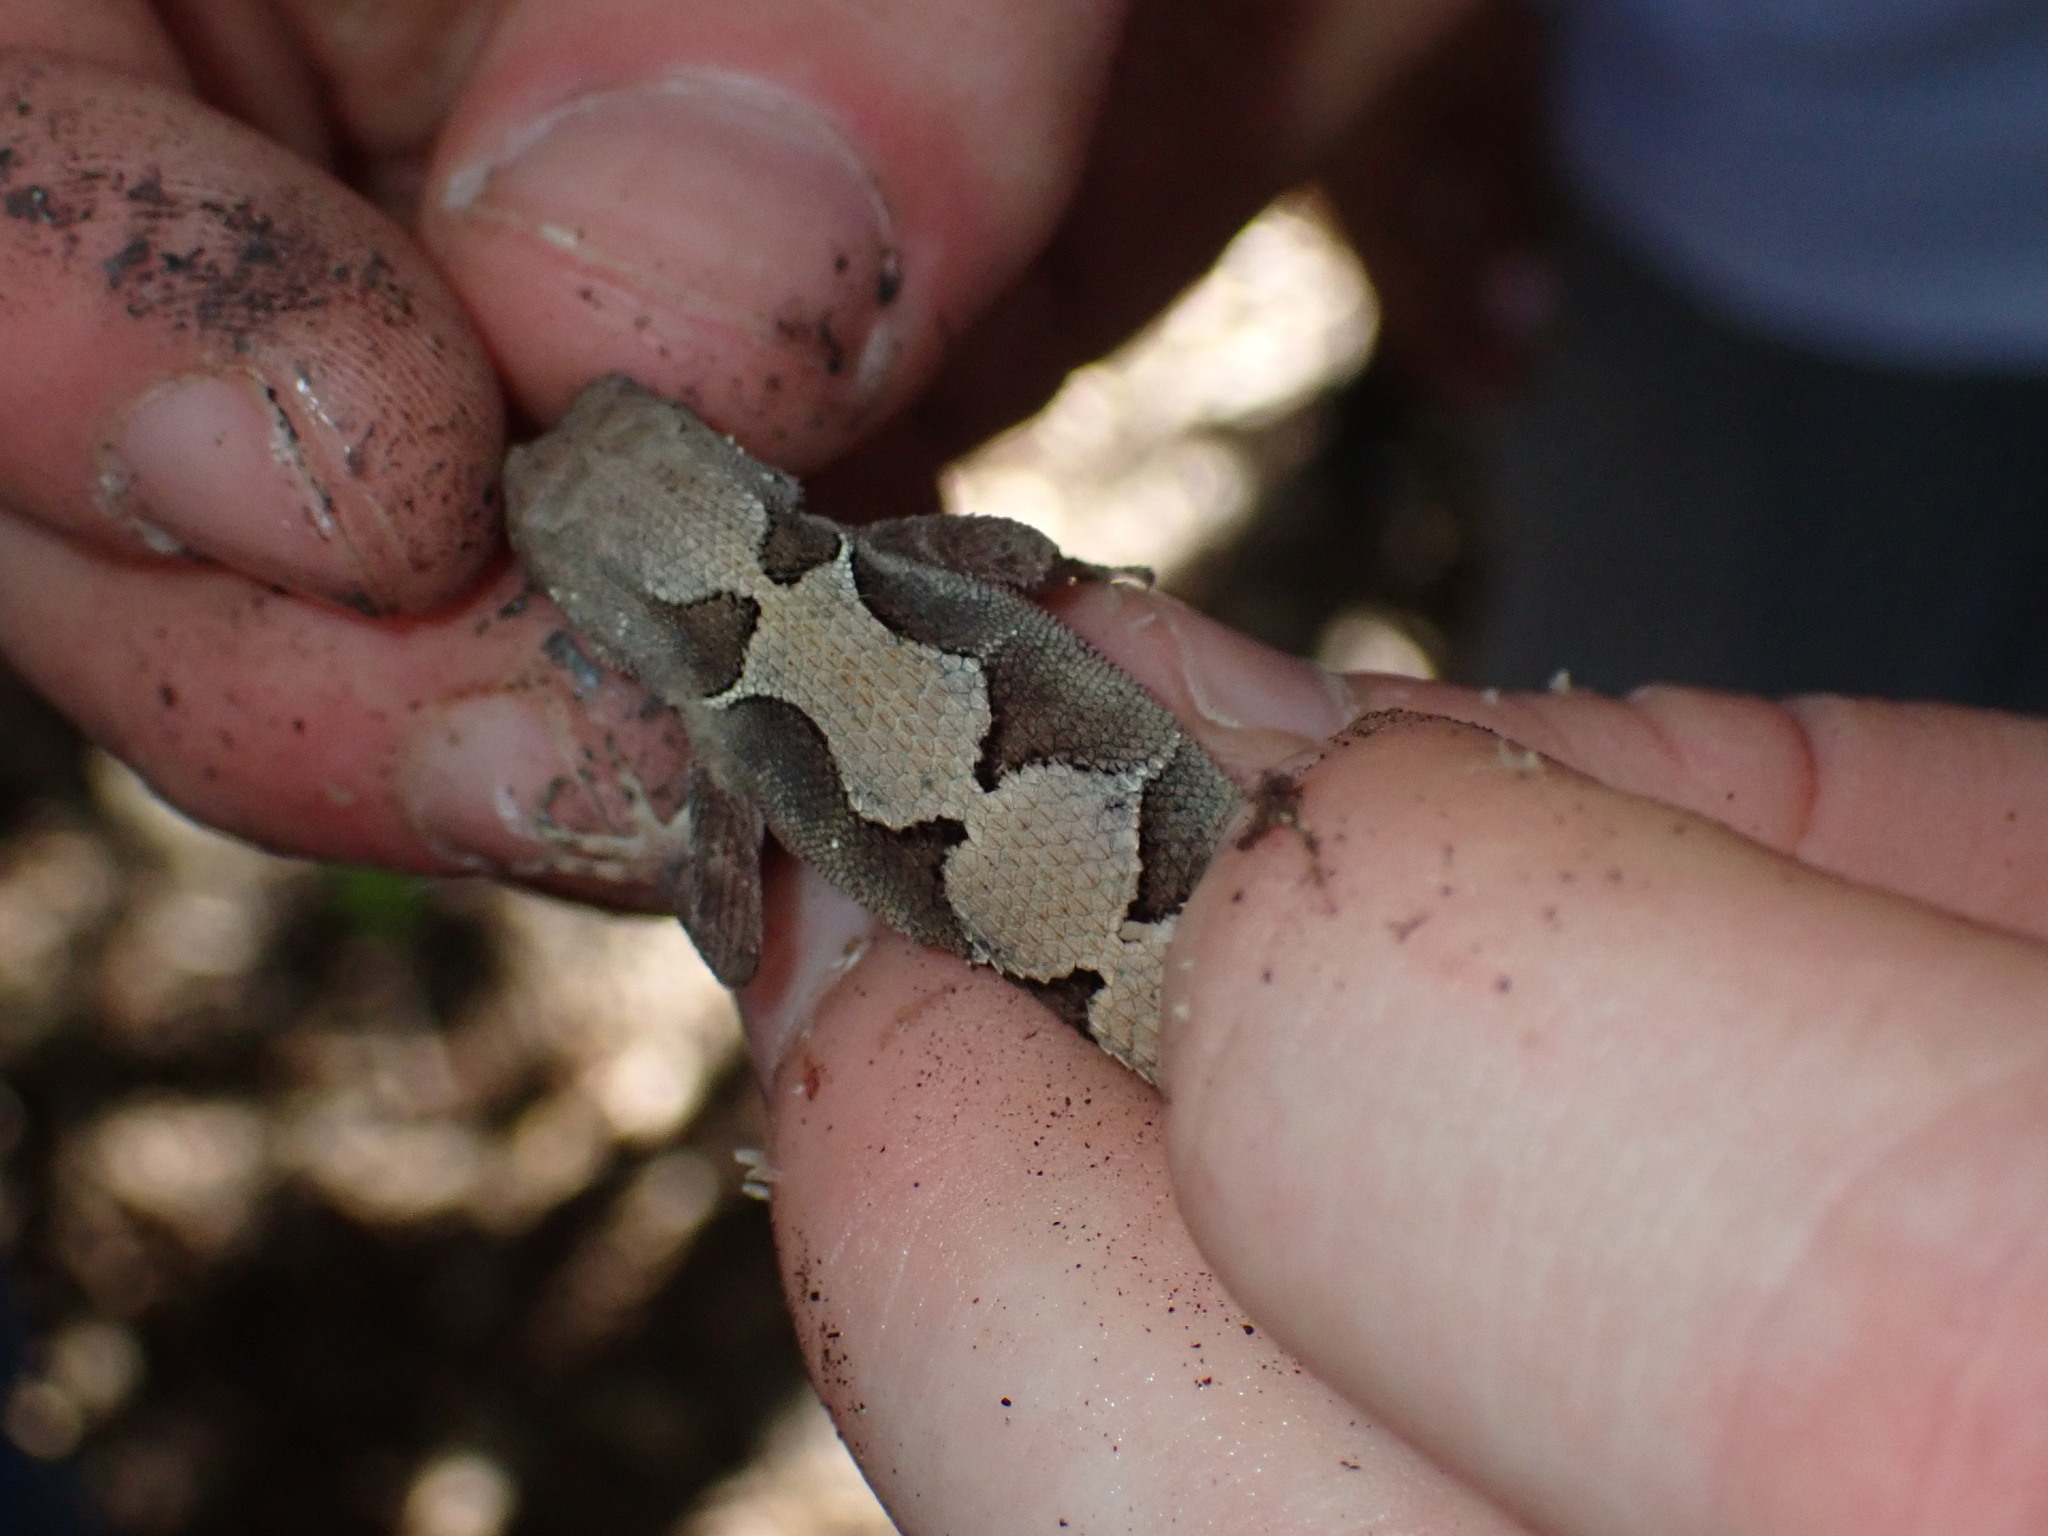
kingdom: Animalia
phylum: Chordata
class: Squamata
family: Dactyloidae
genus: Anolis
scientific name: Anolis tropidonotus
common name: Greater scaly anole
